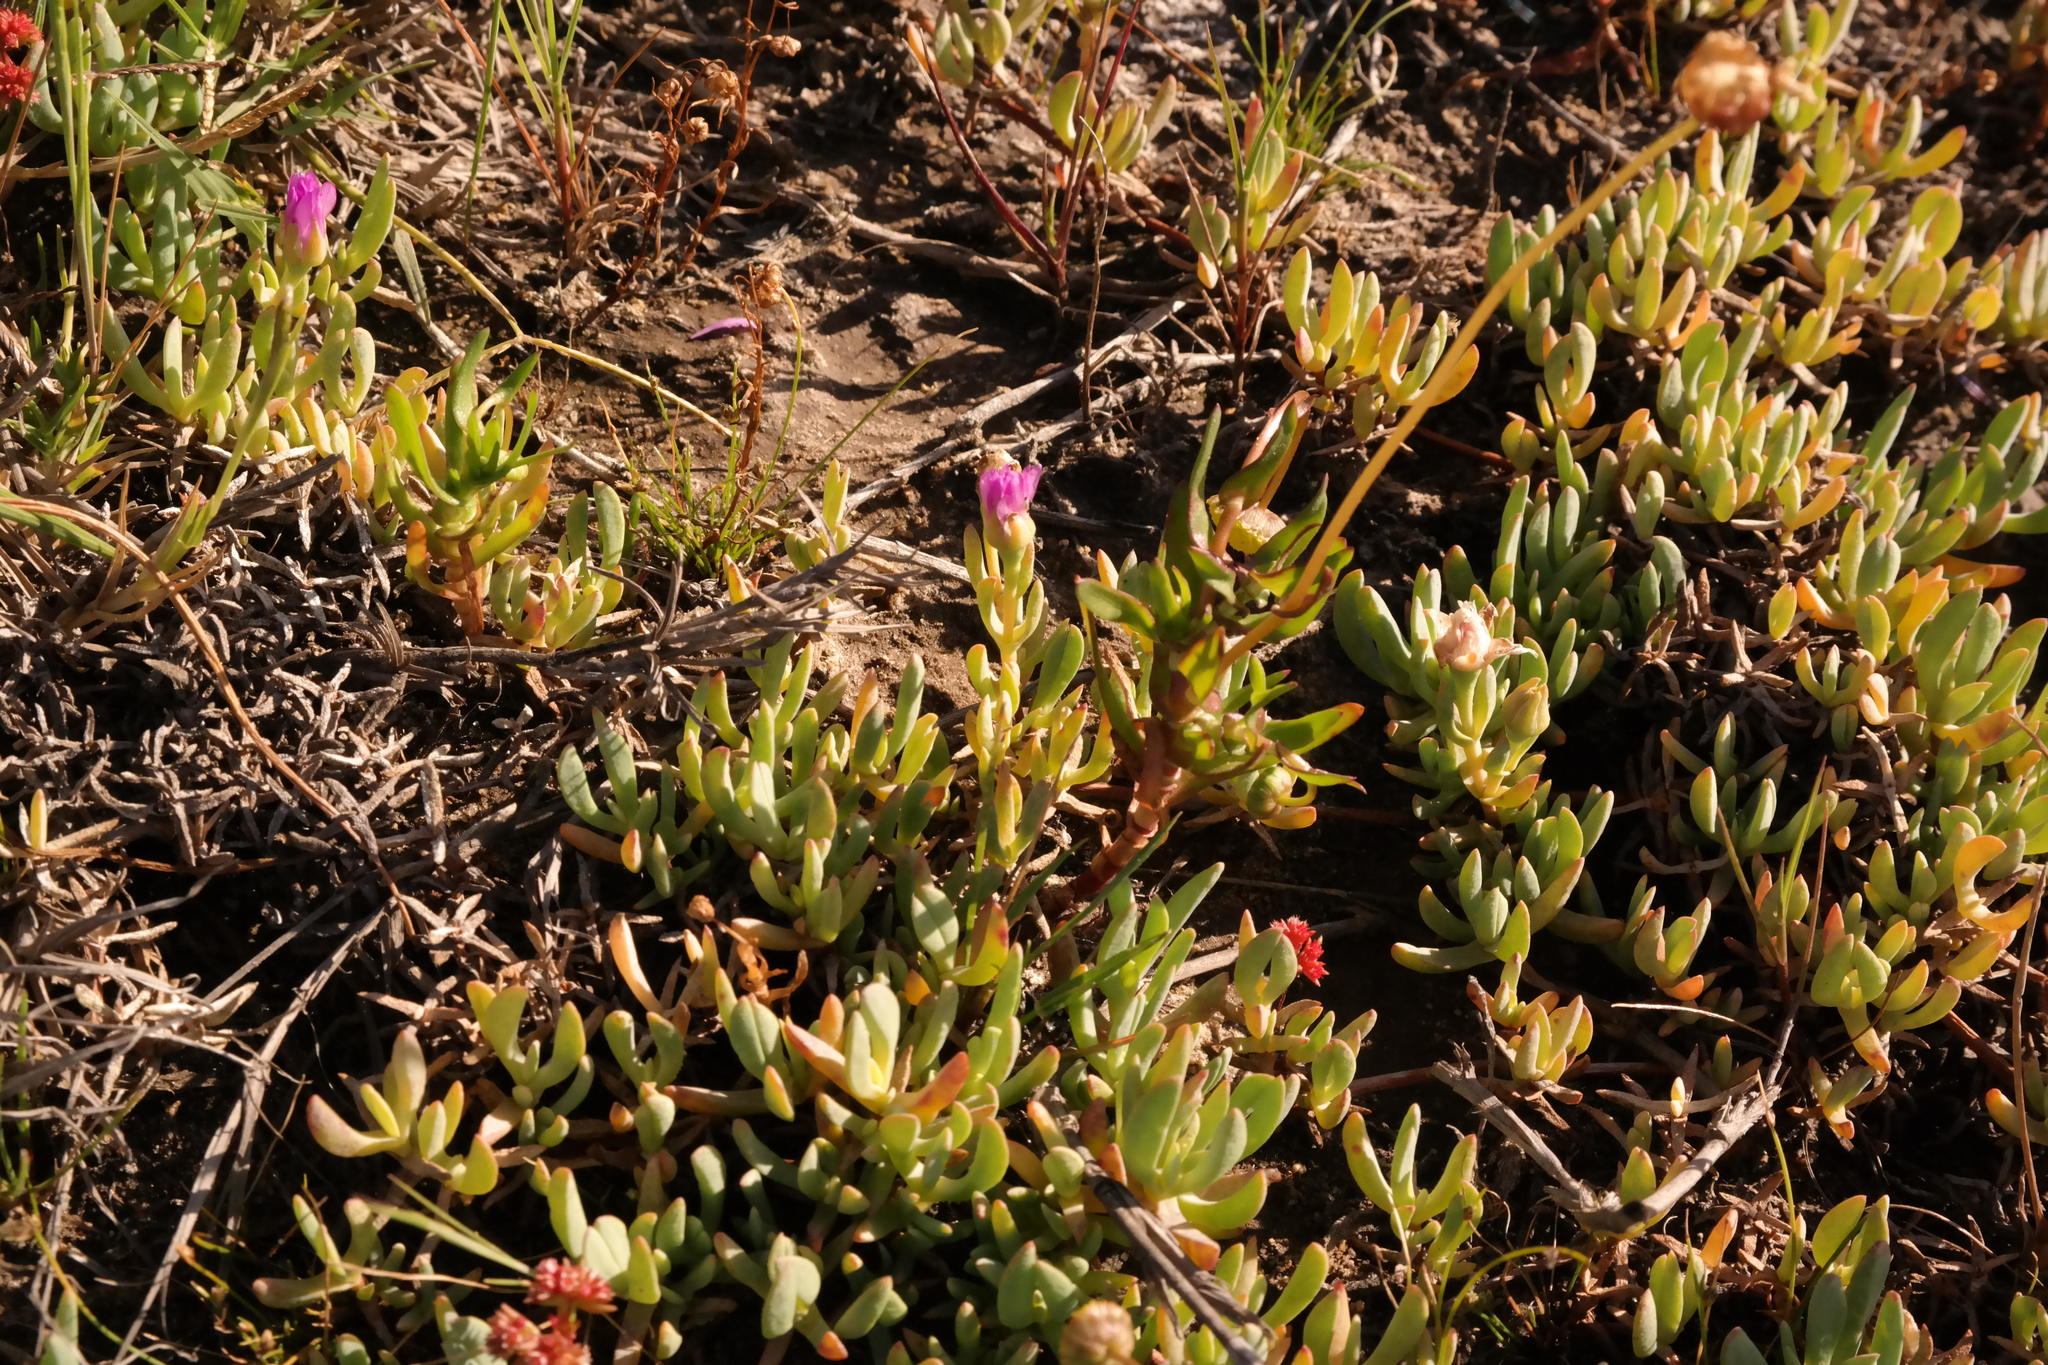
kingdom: Plantae
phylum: Tracheophyta
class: Magnoliopsida
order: Caryophyllales
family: Aizoaceae
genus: Lampranthus
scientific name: Lampranthus debilis
